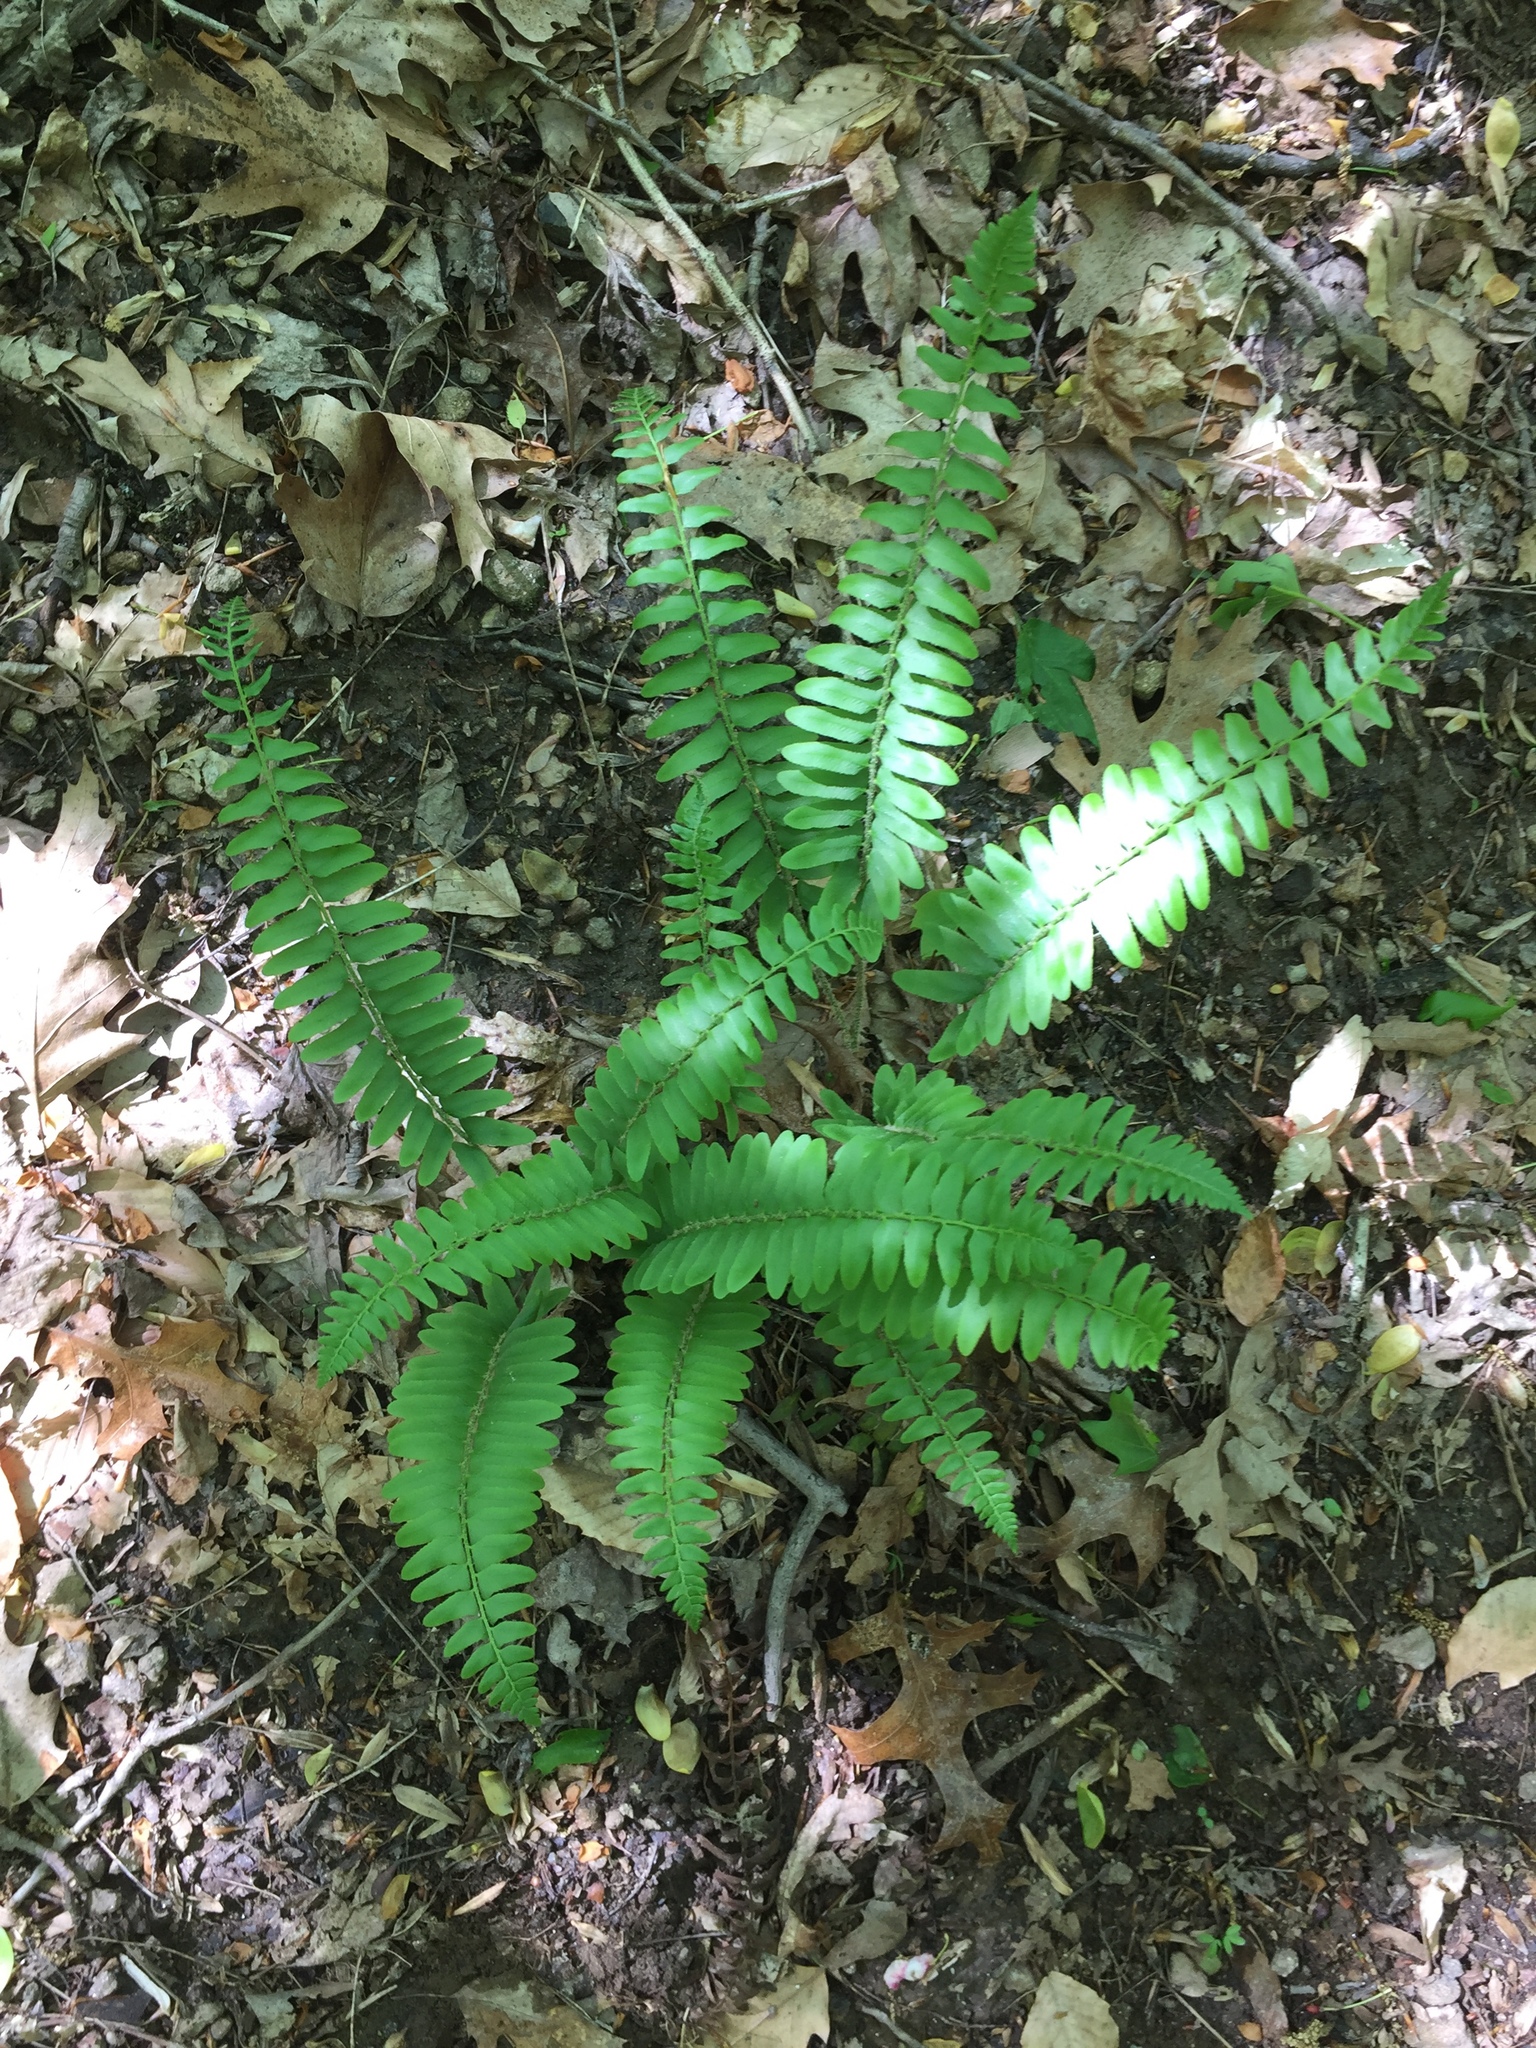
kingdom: Plantae
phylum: Tracheophyta
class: Polypodiopsida
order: Polypodiales
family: Dryopteridaceae
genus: Polystichum
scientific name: Polystichum acrostichoides
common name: Christmas fern
